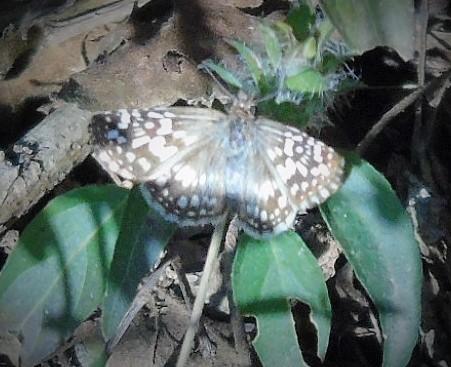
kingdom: Animalia
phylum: Arthropoda
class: Insecta
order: Lepidoptera
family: Hesperiidae
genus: Pyrgus
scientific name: Pyrgus oileus
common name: Tropical checkered-skipper
